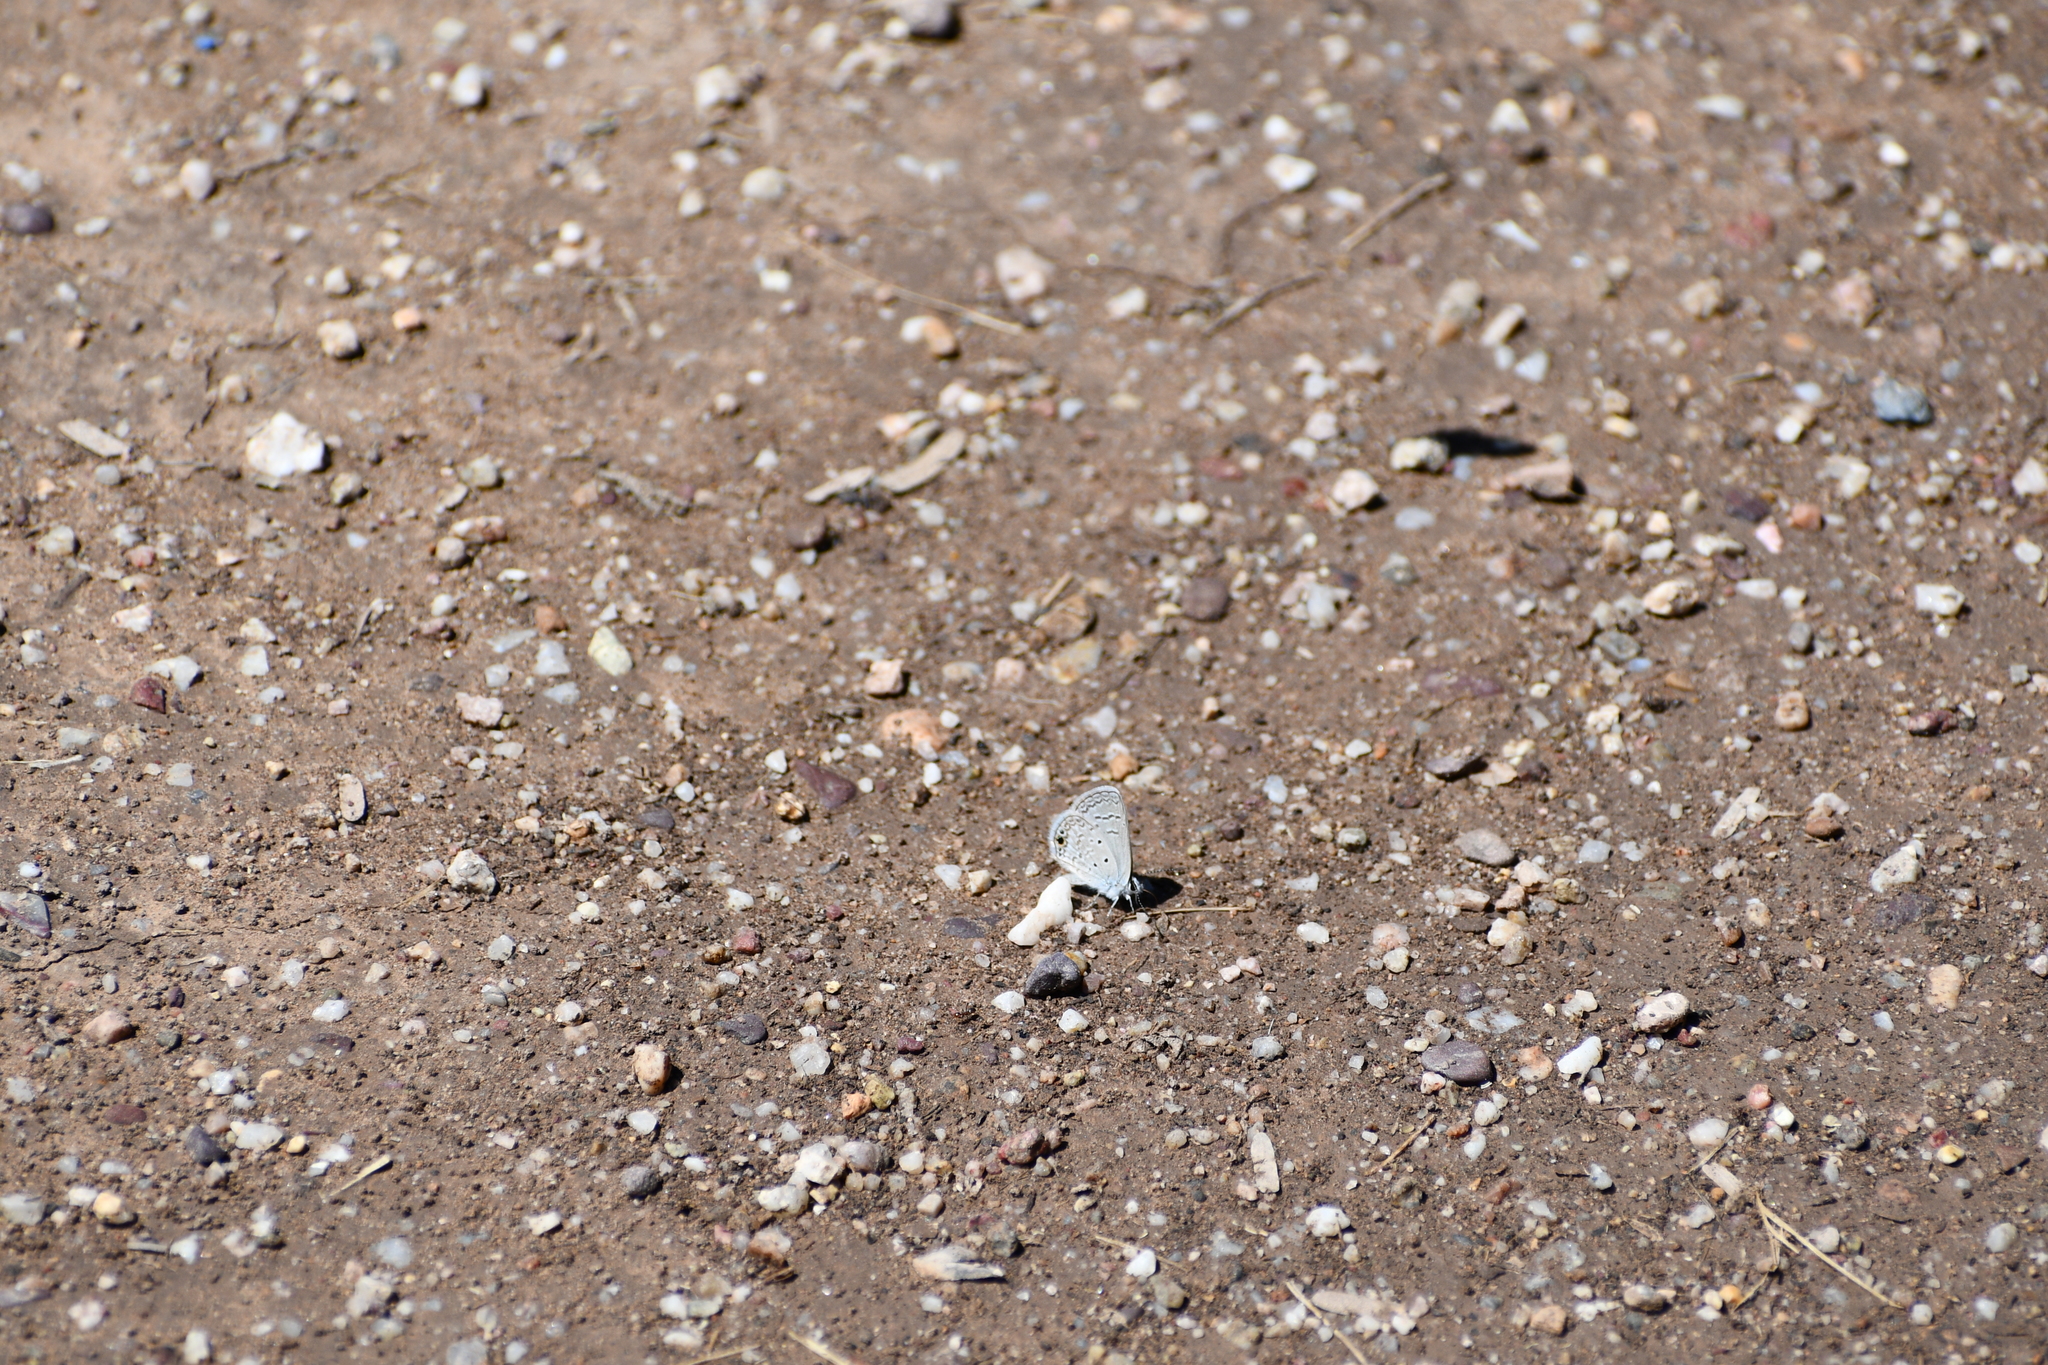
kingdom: Animalia
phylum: Arthropoda
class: Insecta
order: Lepidoptera
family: Lycaenidae
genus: Celastrina
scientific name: Celastrina ladon
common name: Spring azure
